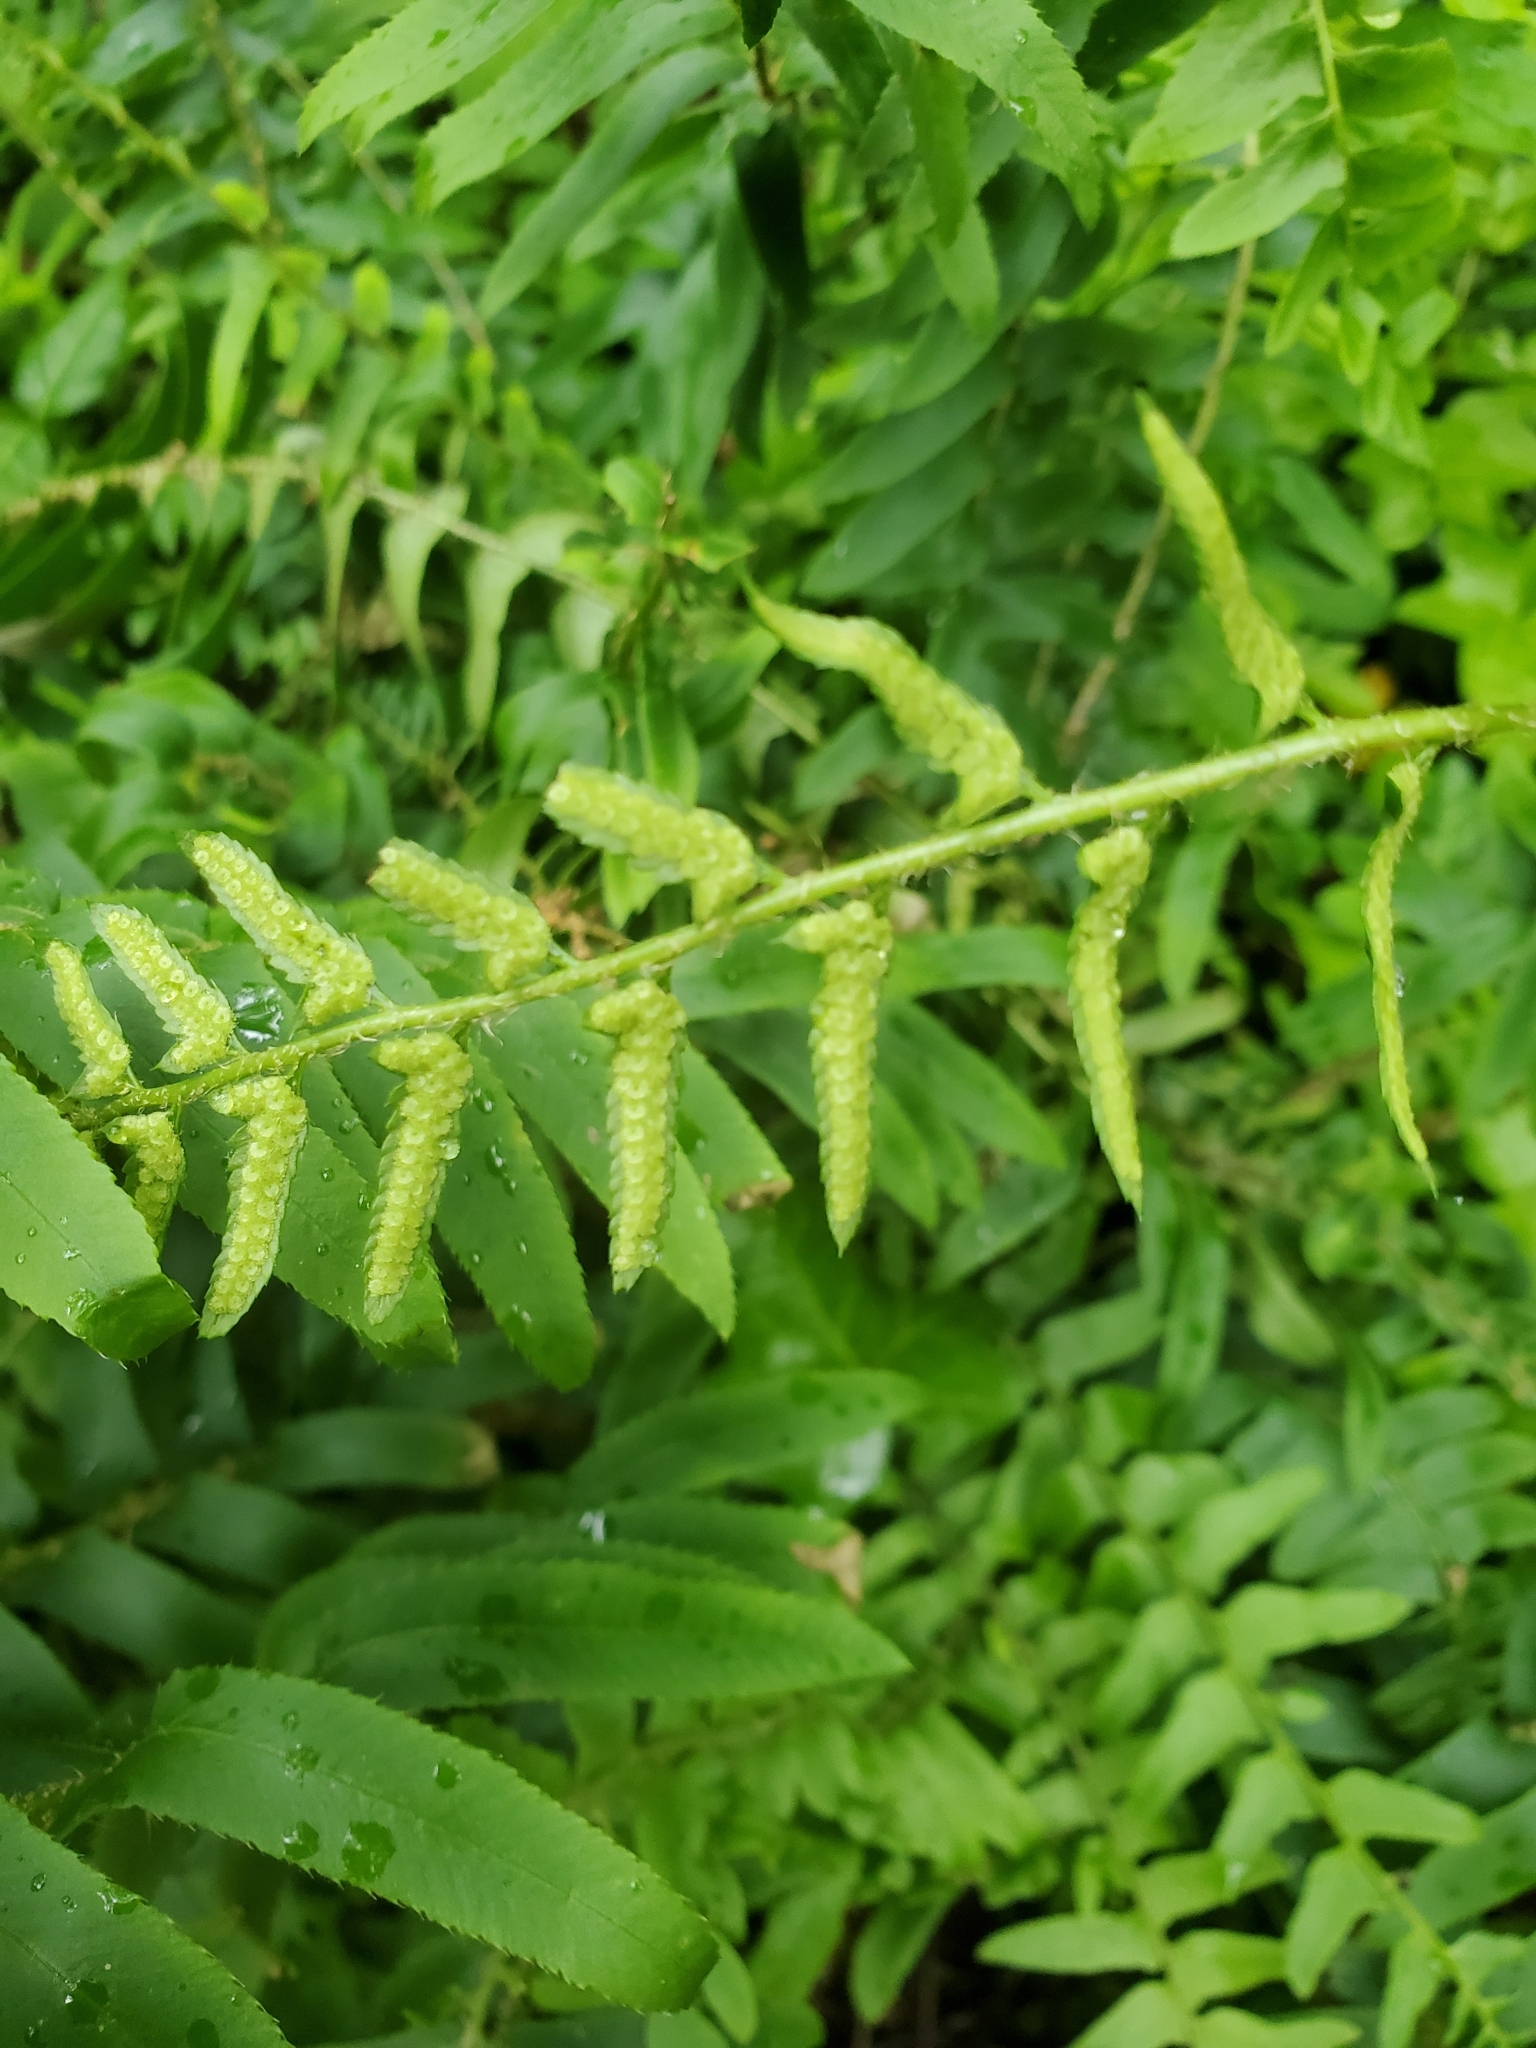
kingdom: Plantae
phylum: Tracheophyta
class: Polypodiopsida
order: Polypodiales
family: Dryopteridaceae
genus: Polystichum
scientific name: Polystichum acrostichoides
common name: Christmas fern
